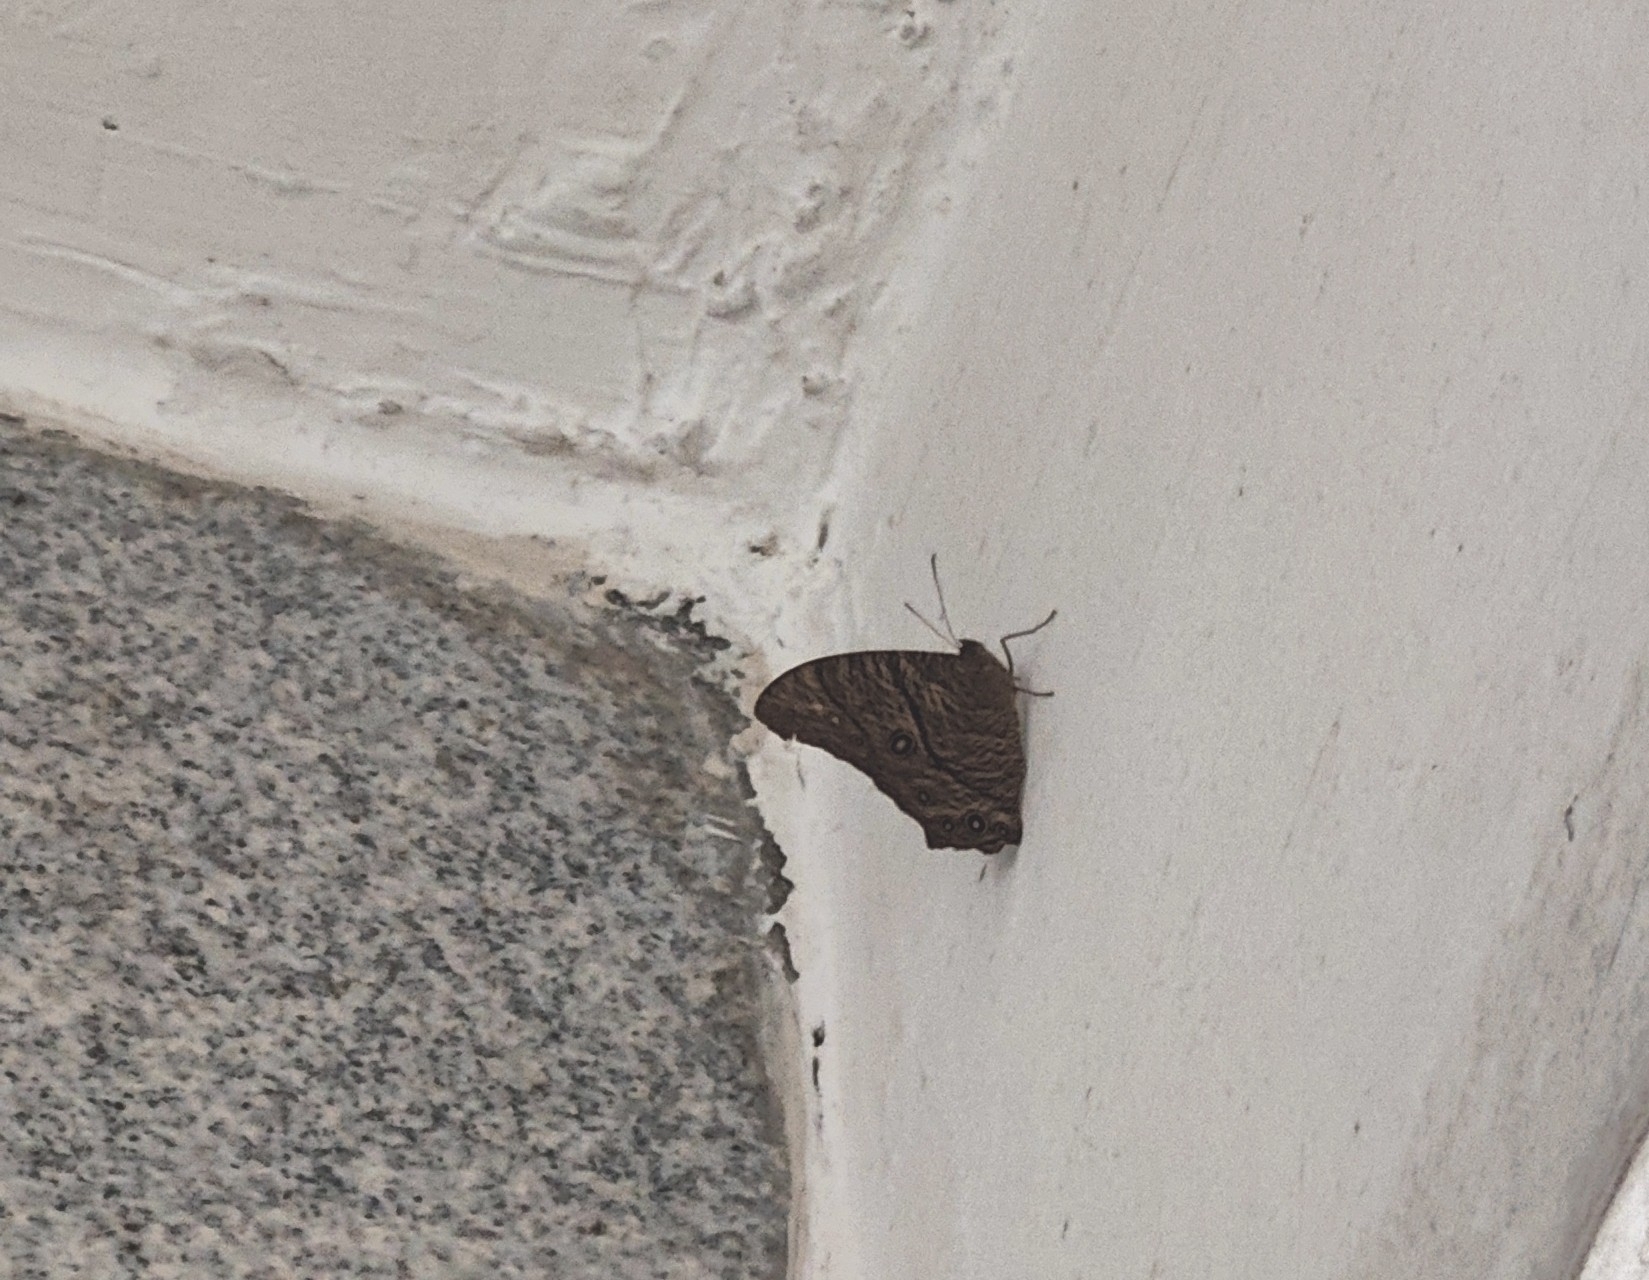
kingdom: Animalia
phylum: Arthropoda
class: Insecta
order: Lepidoptera
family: Nymphalidae
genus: Melanitis
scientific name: Melanitis leda
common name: Twilight brown
